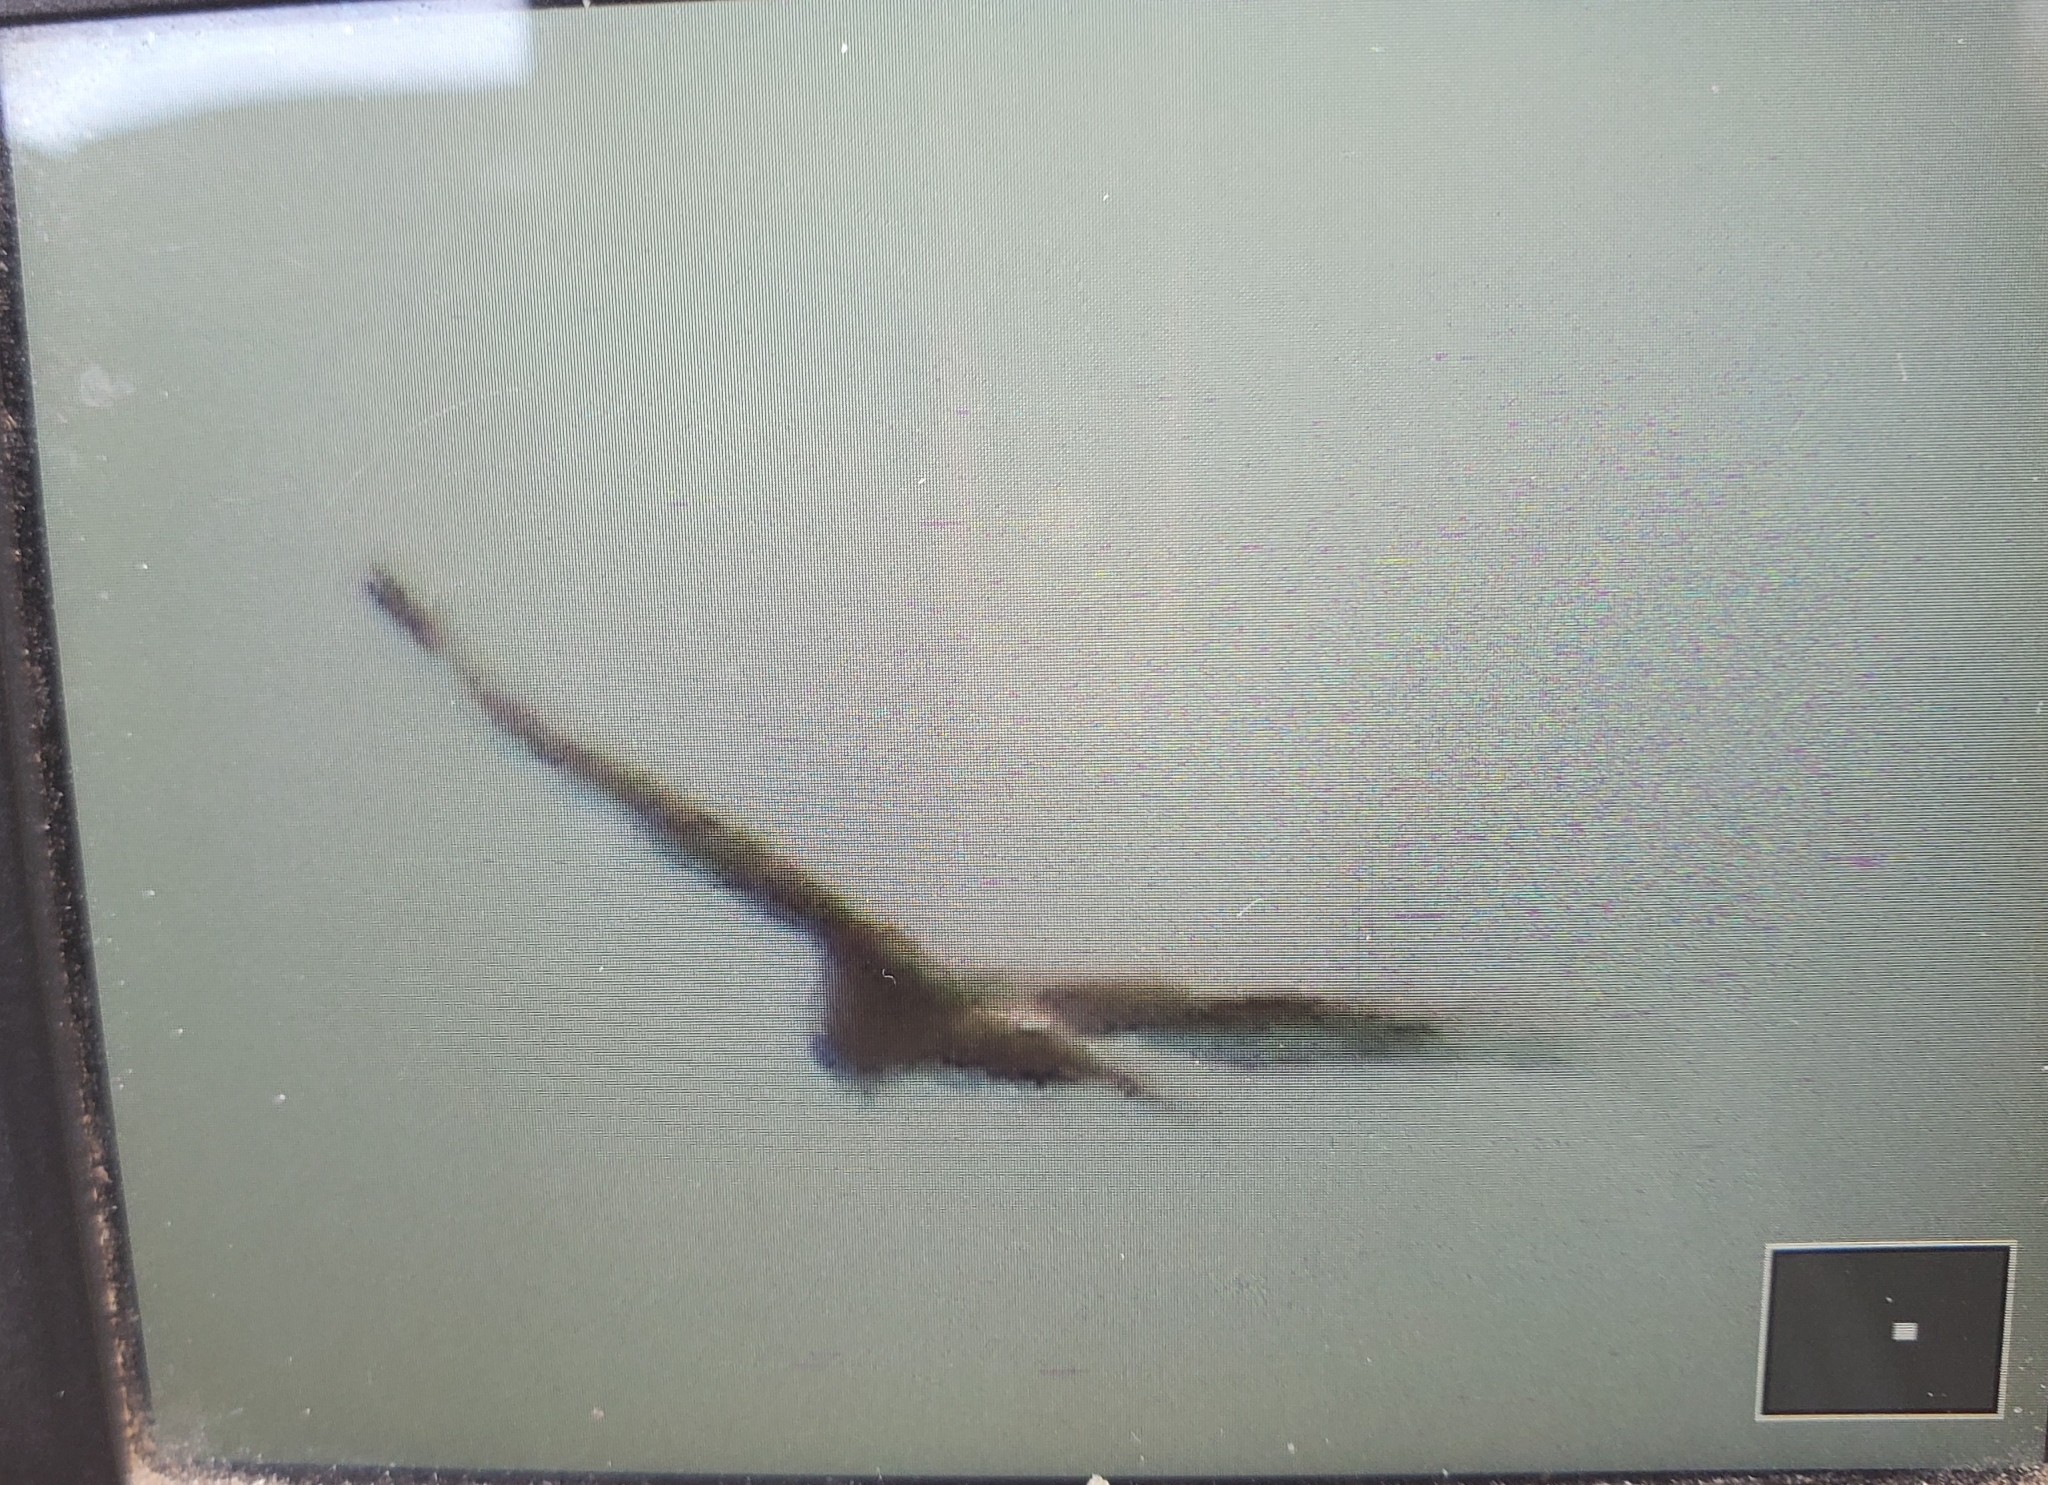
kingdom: Animalia
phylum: Chordata
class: Aves
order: Accipitriformes
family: Accipitridae
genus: Circus
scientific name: Circus cyaneus
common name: Hen harrier
